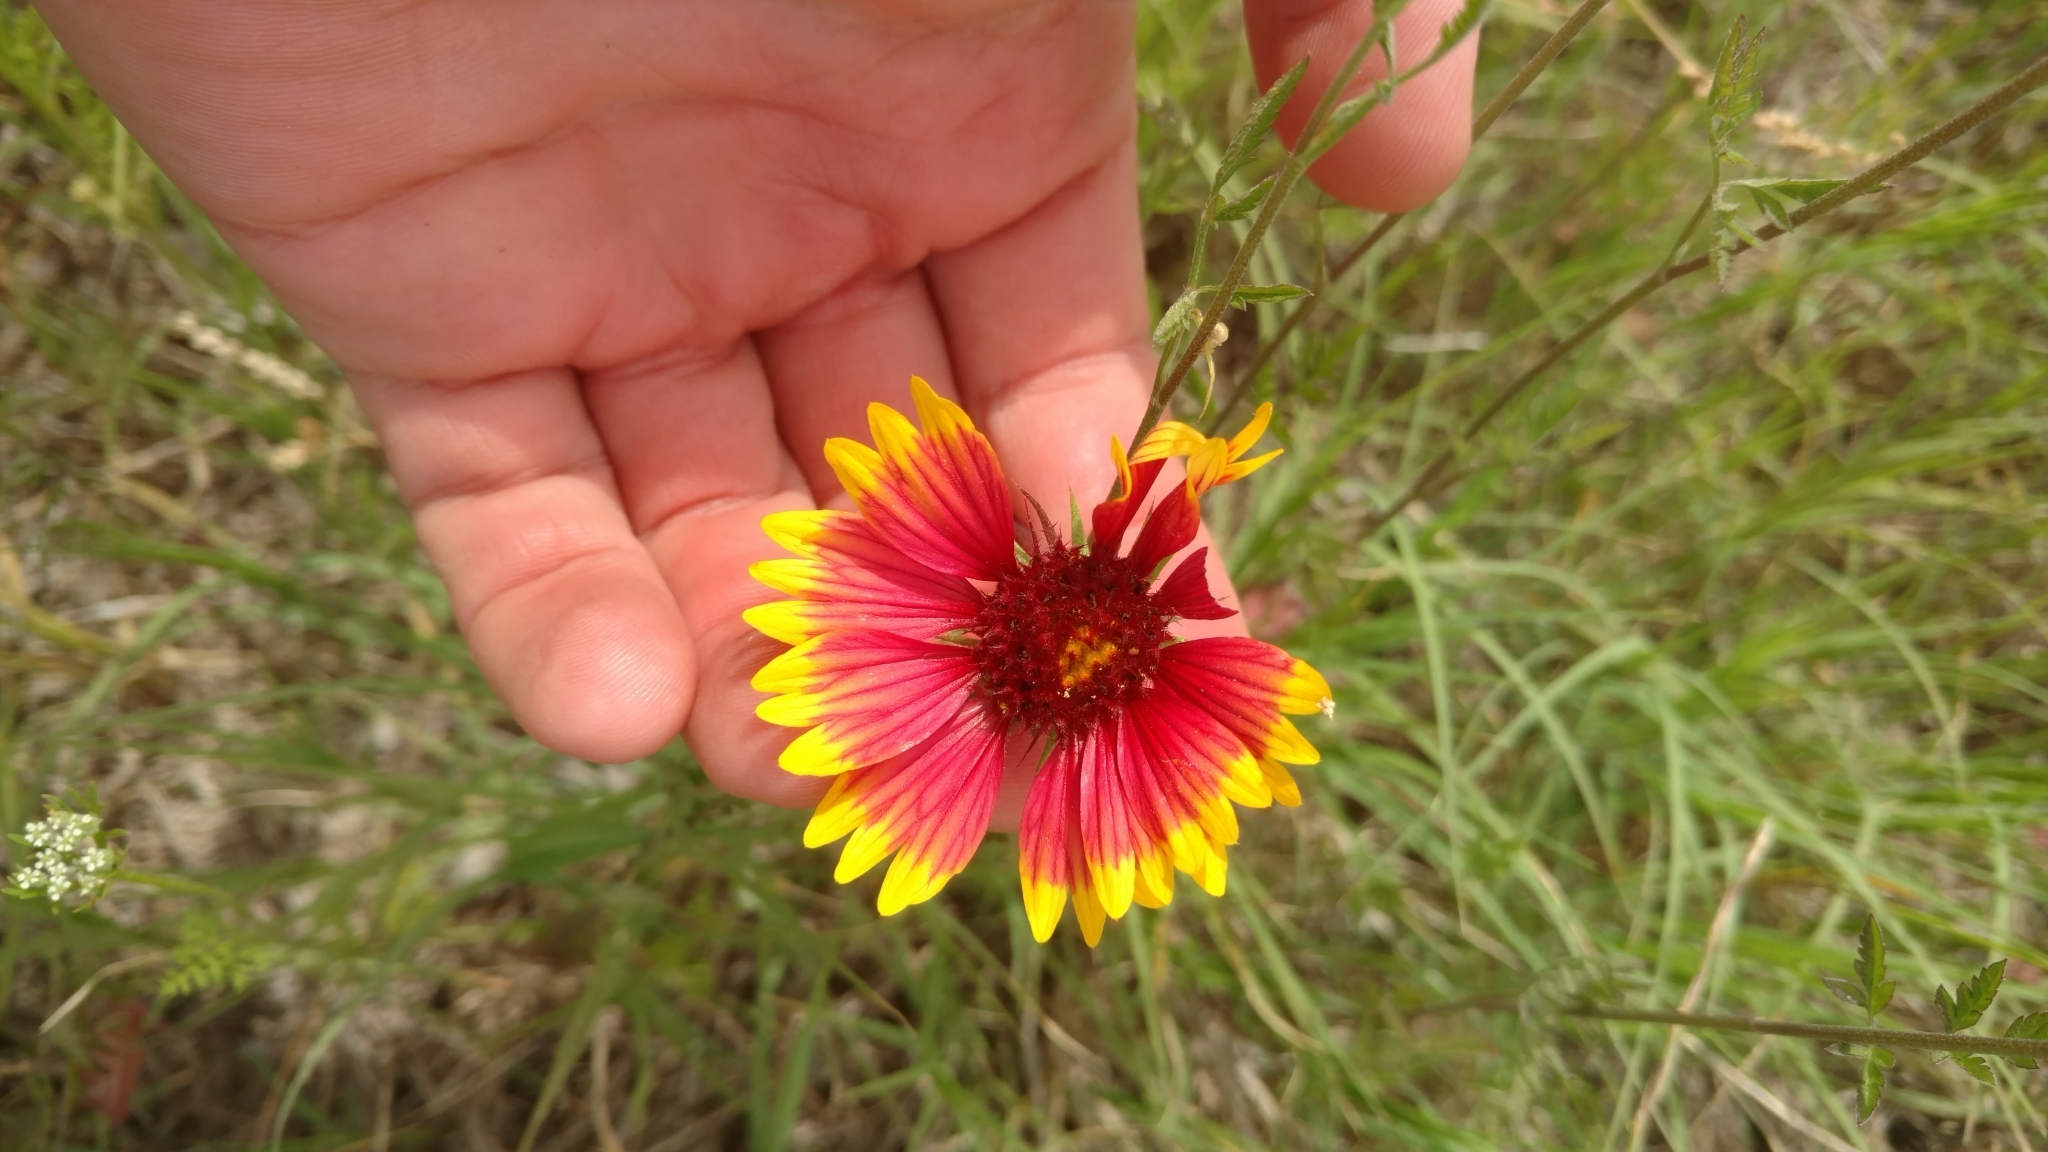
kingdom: Plantae
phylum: Tracheophyta
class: Magnoliopsida
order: Asterales
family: Asteraceae
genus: Gaillardia
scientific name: Gaillardia pulchella
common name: Firewheel
